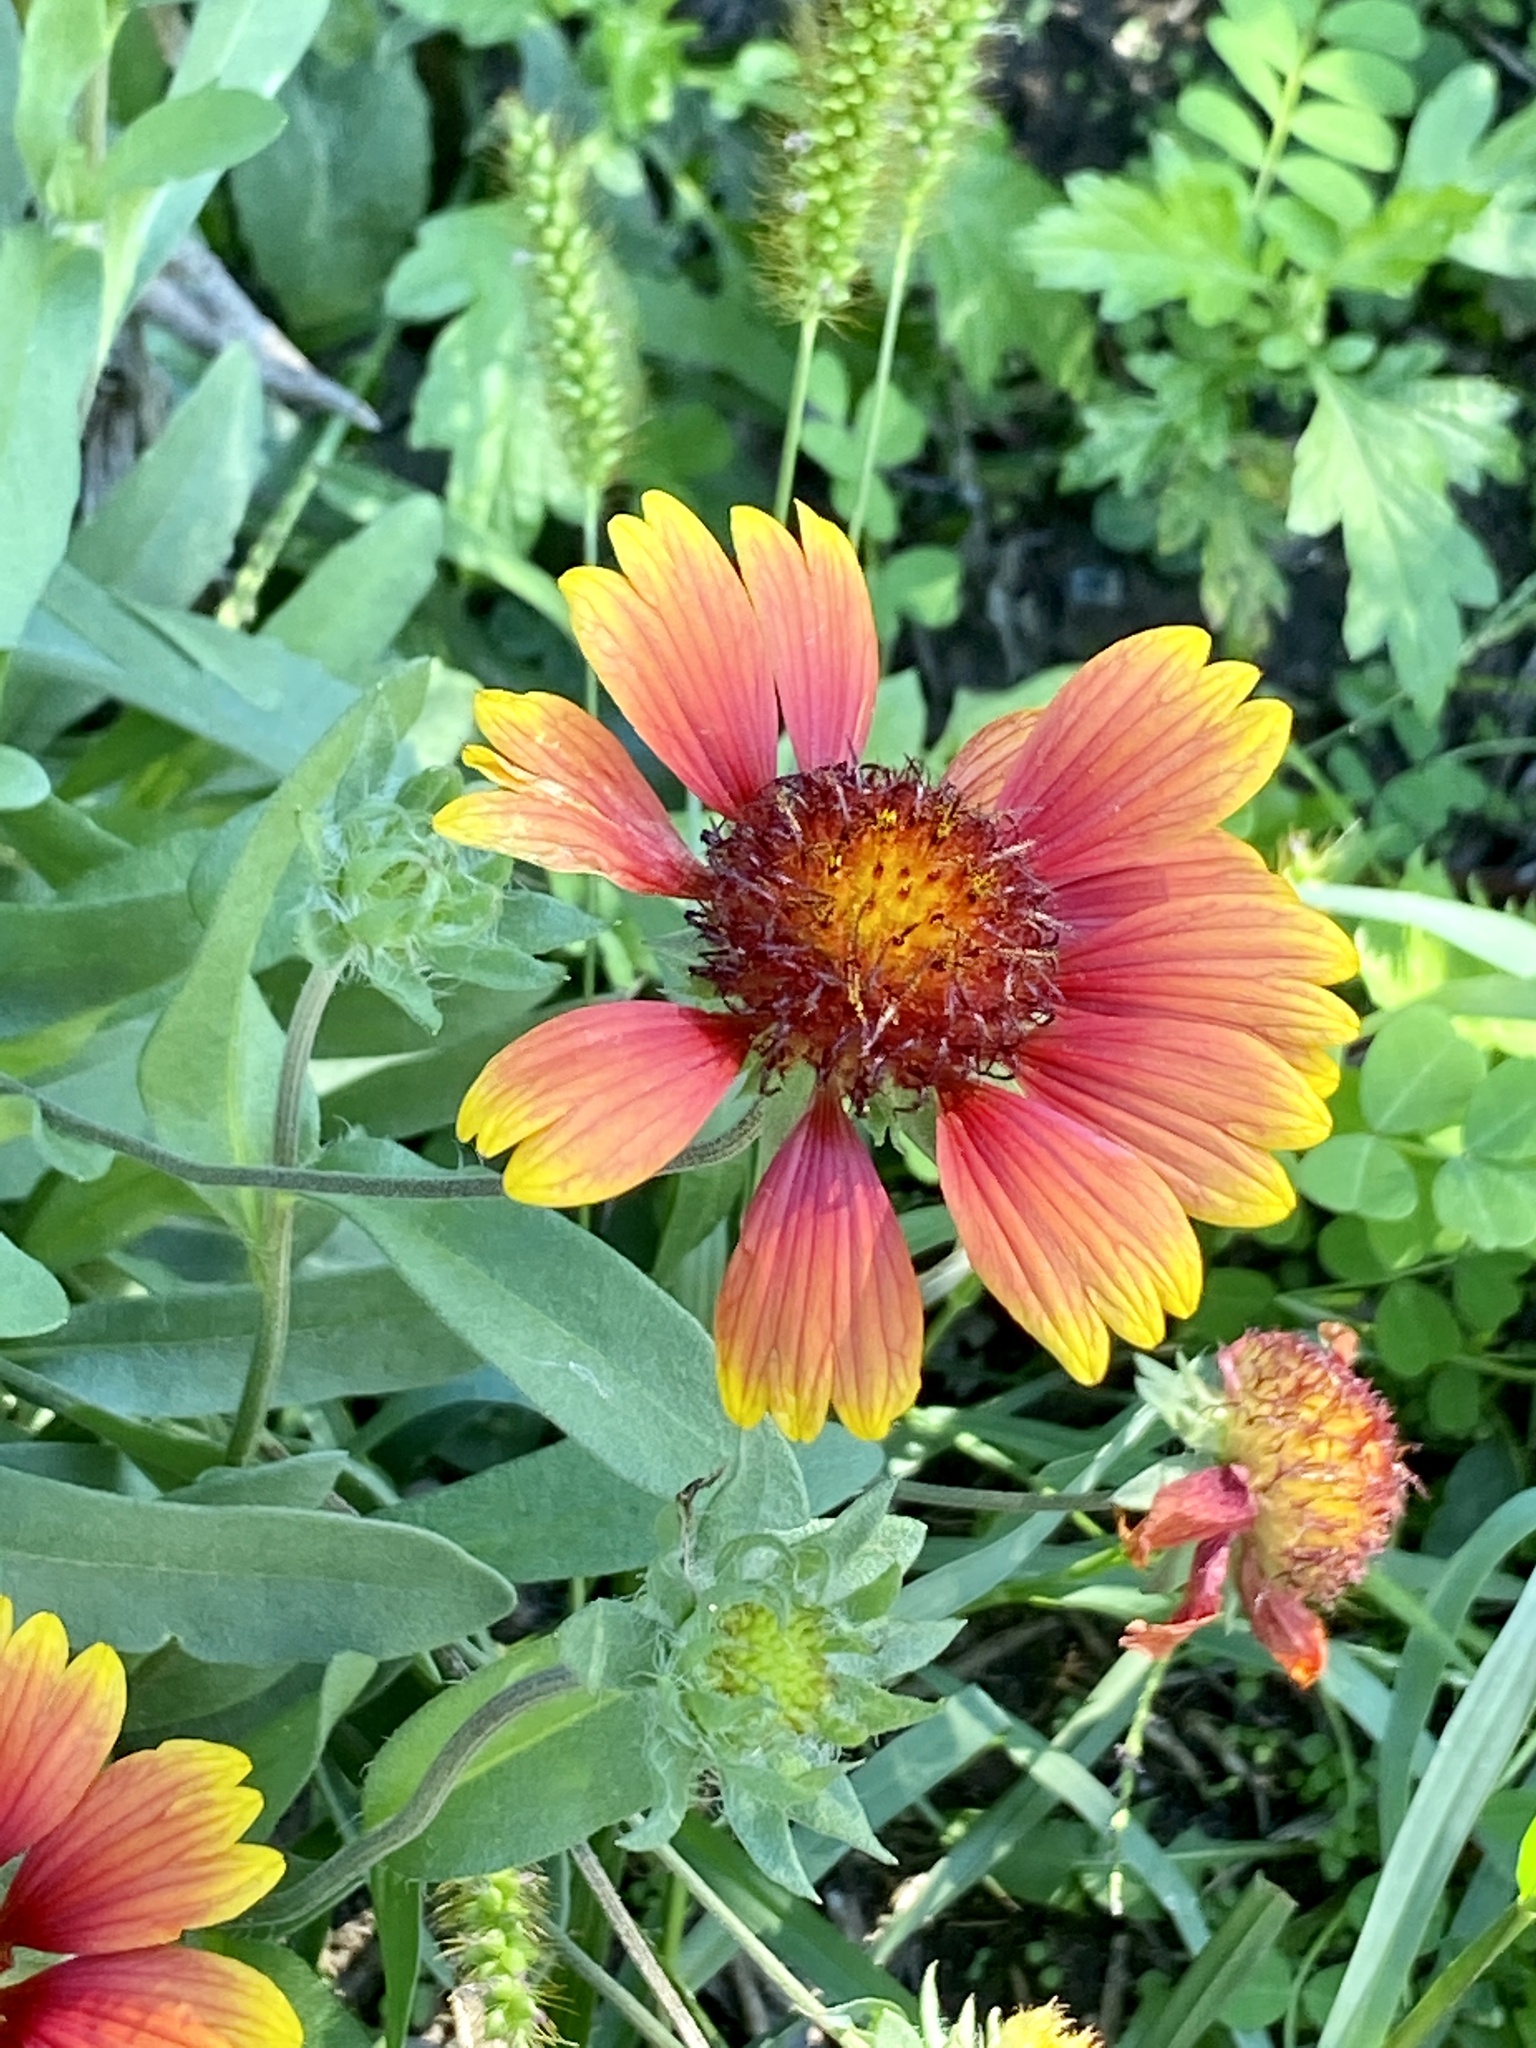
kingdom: Plantae
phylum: Tracheophyta
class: Magnoliopsida
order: Asterales
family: Asteraceae
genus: Gaillardia
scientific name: Gaillardia pulchella
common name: Firewheel
